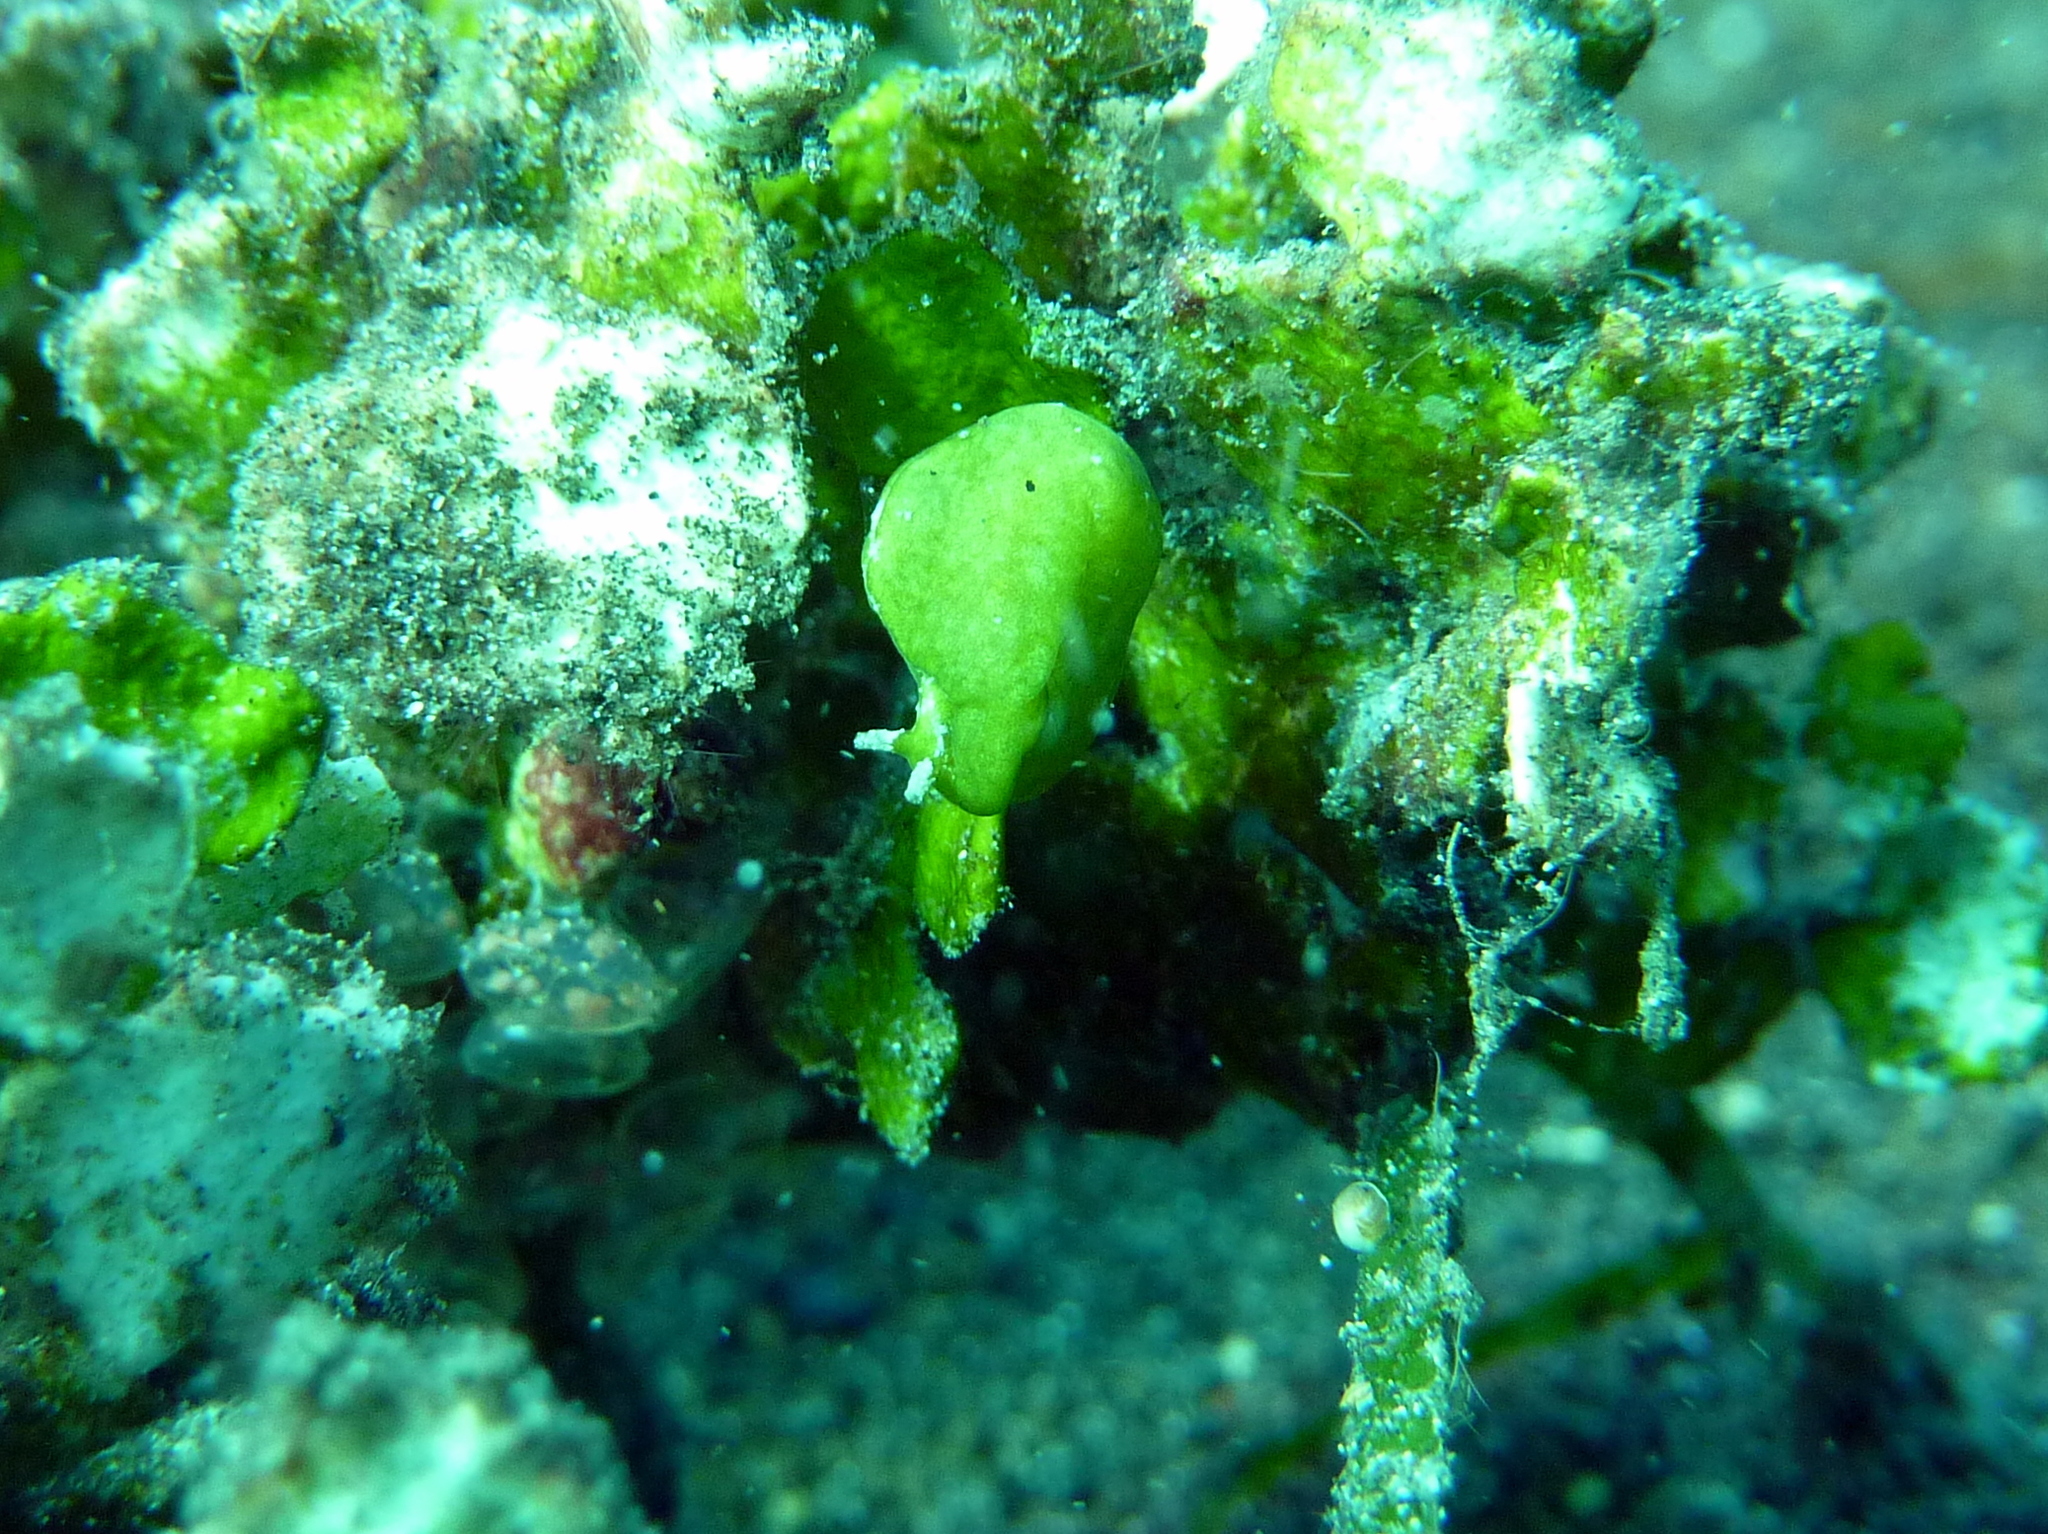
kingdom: Animalia
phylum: Mollusca
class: Gastropoda
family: Plakobranchidae
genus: Elysia
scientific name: Elysia pusilla
